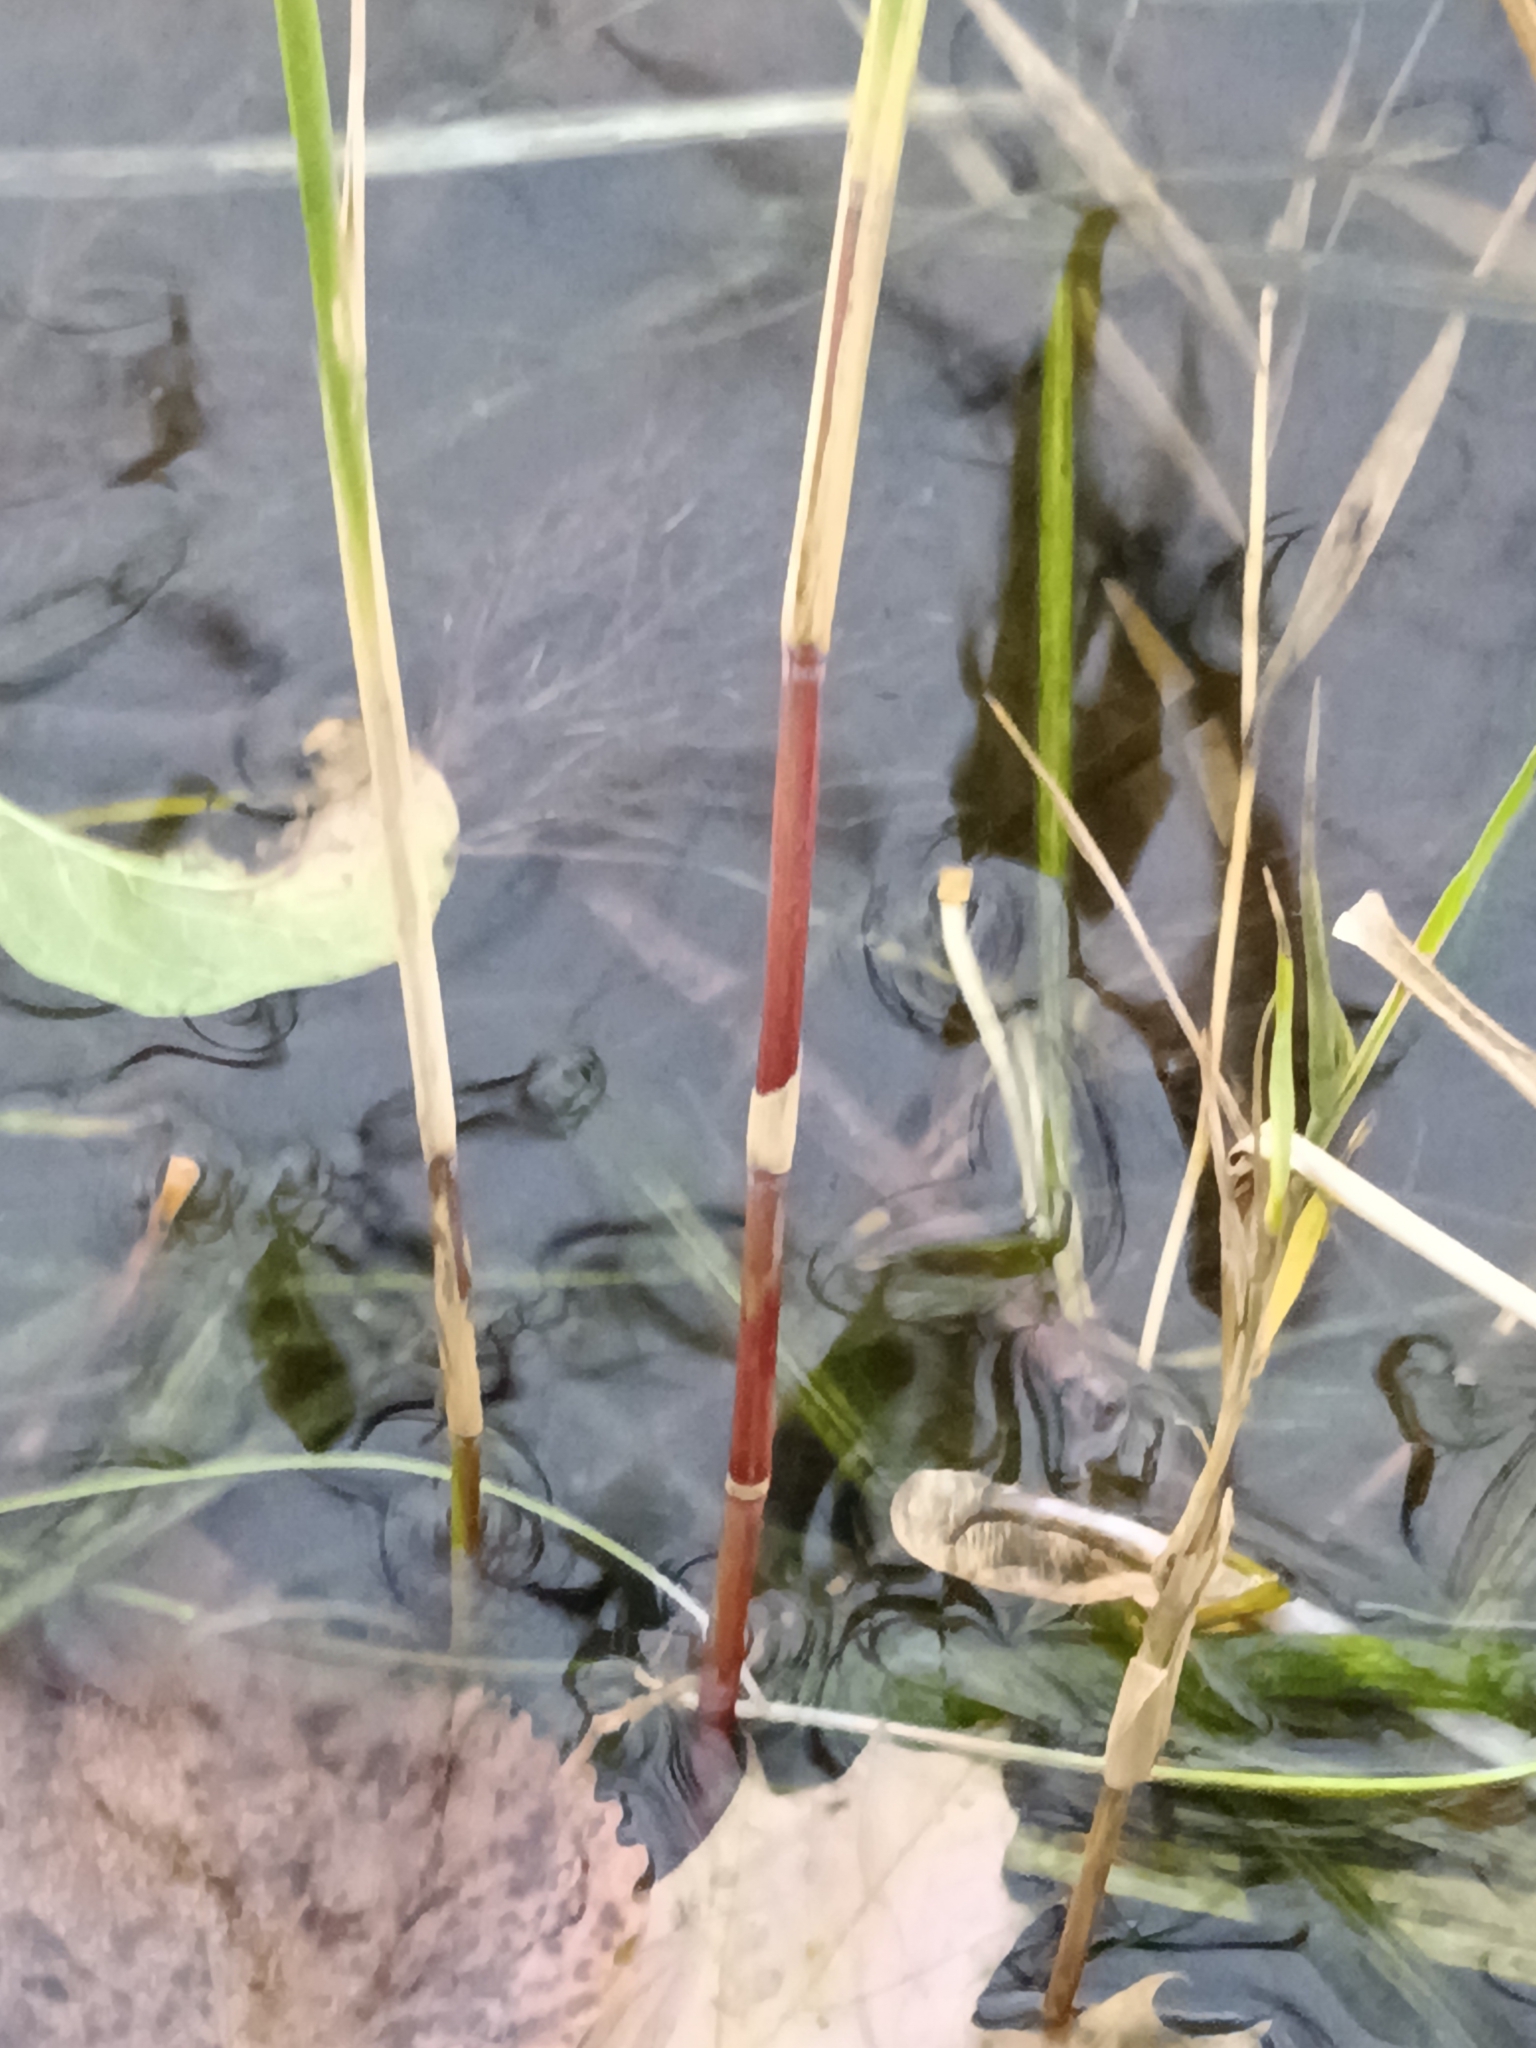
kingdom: Plantae
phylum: Tracheophyta
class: Liliopsida
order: Poales
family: Poaceae
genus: Phragmites
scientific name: Phragmites australis
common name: Common reed
